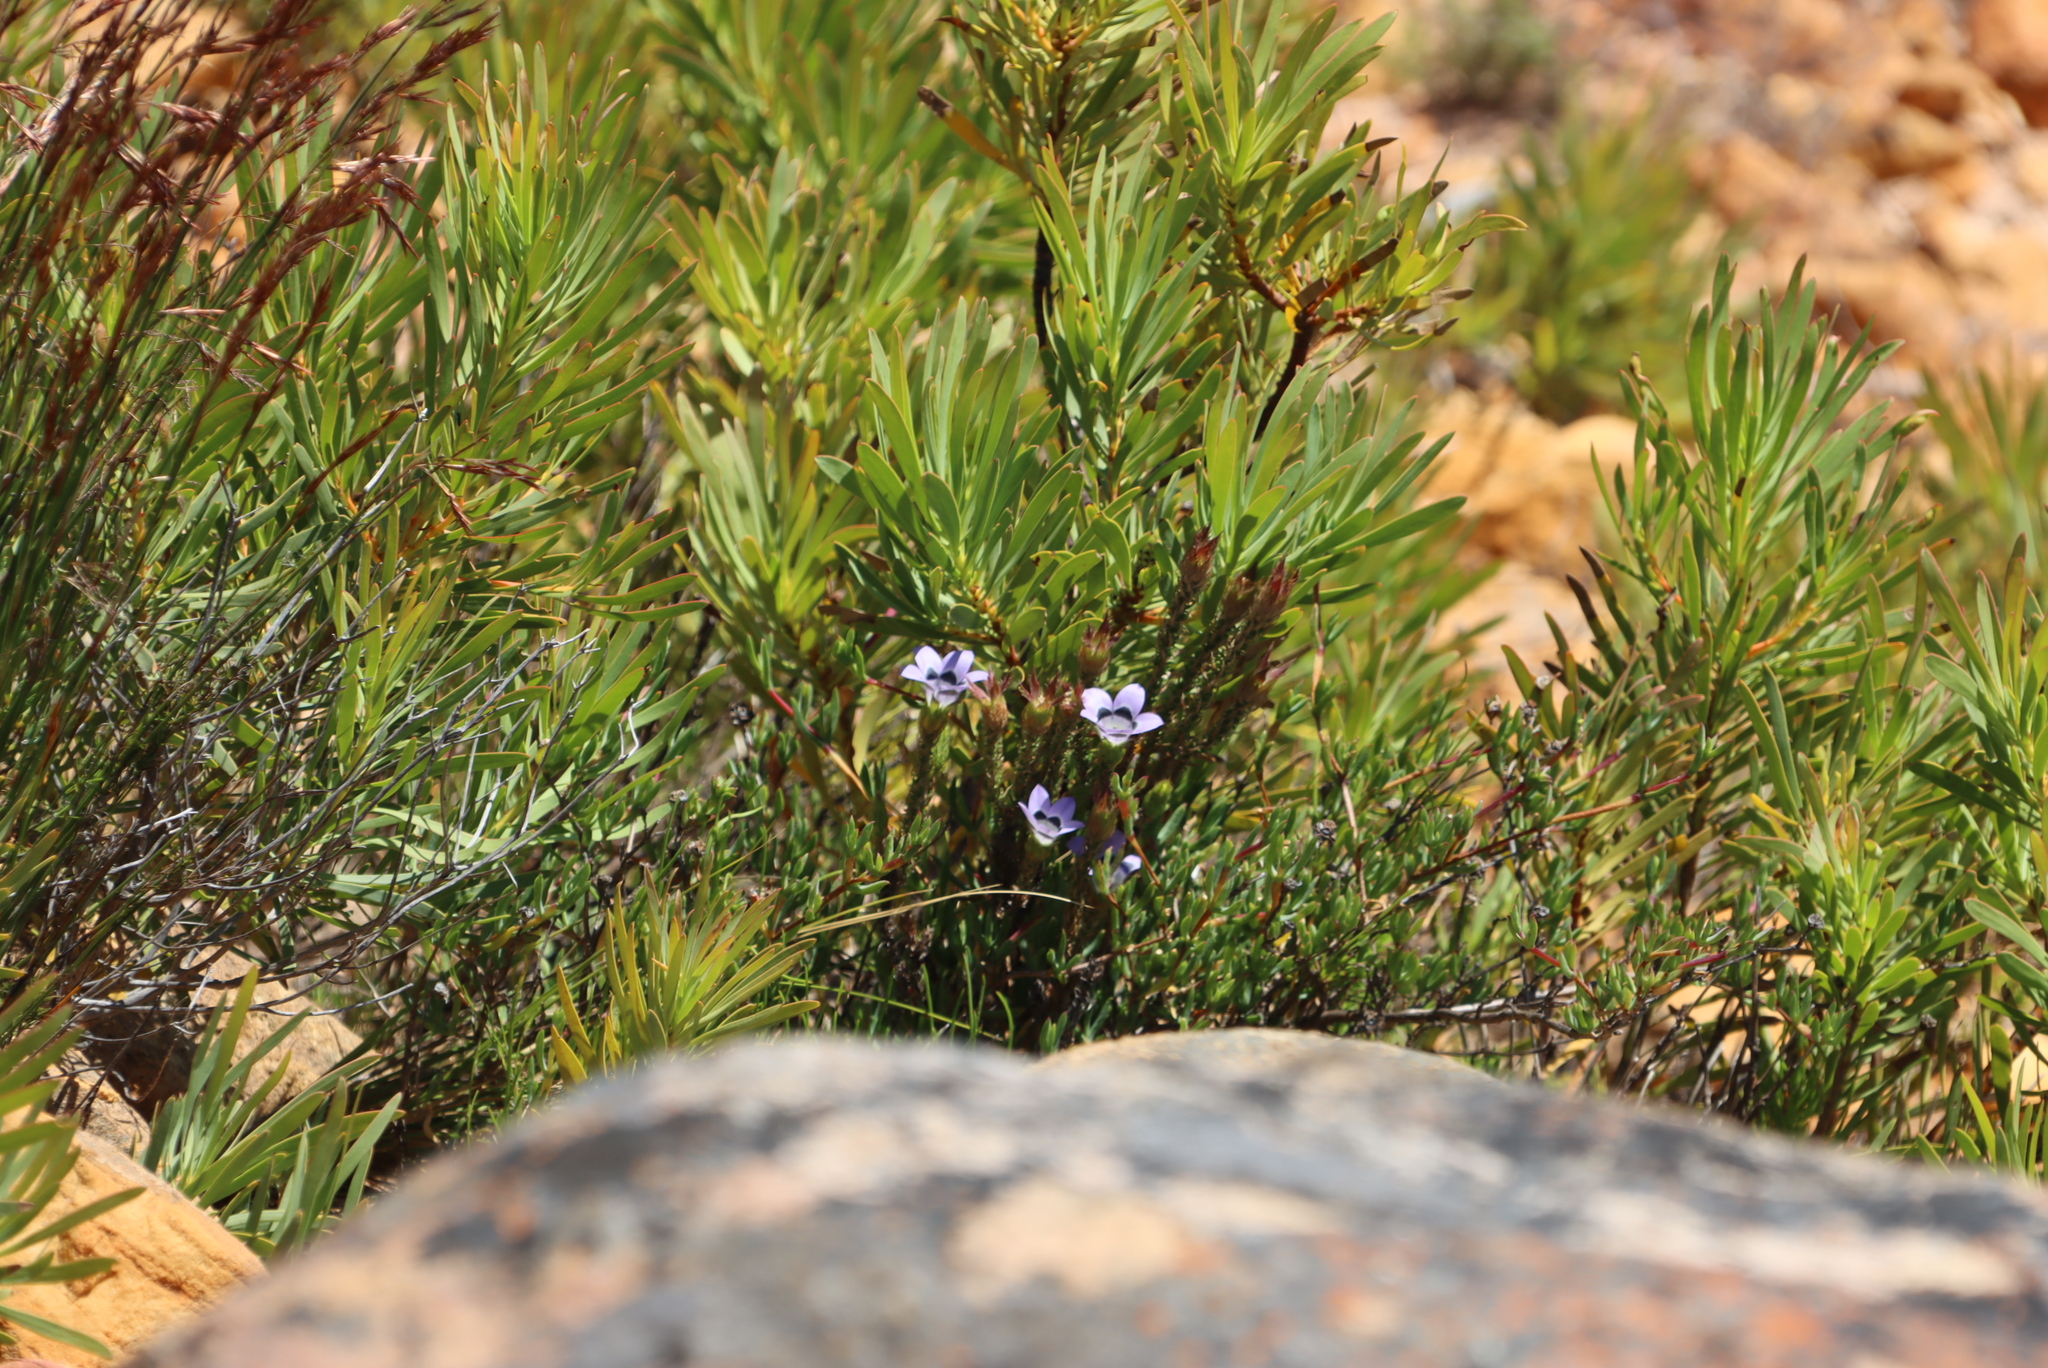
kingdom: Plantae
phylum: Tracheophyta
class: Magnoliopsida
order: Asterales
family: Campanulaceae
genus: Roella
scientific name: Roella ciliata
